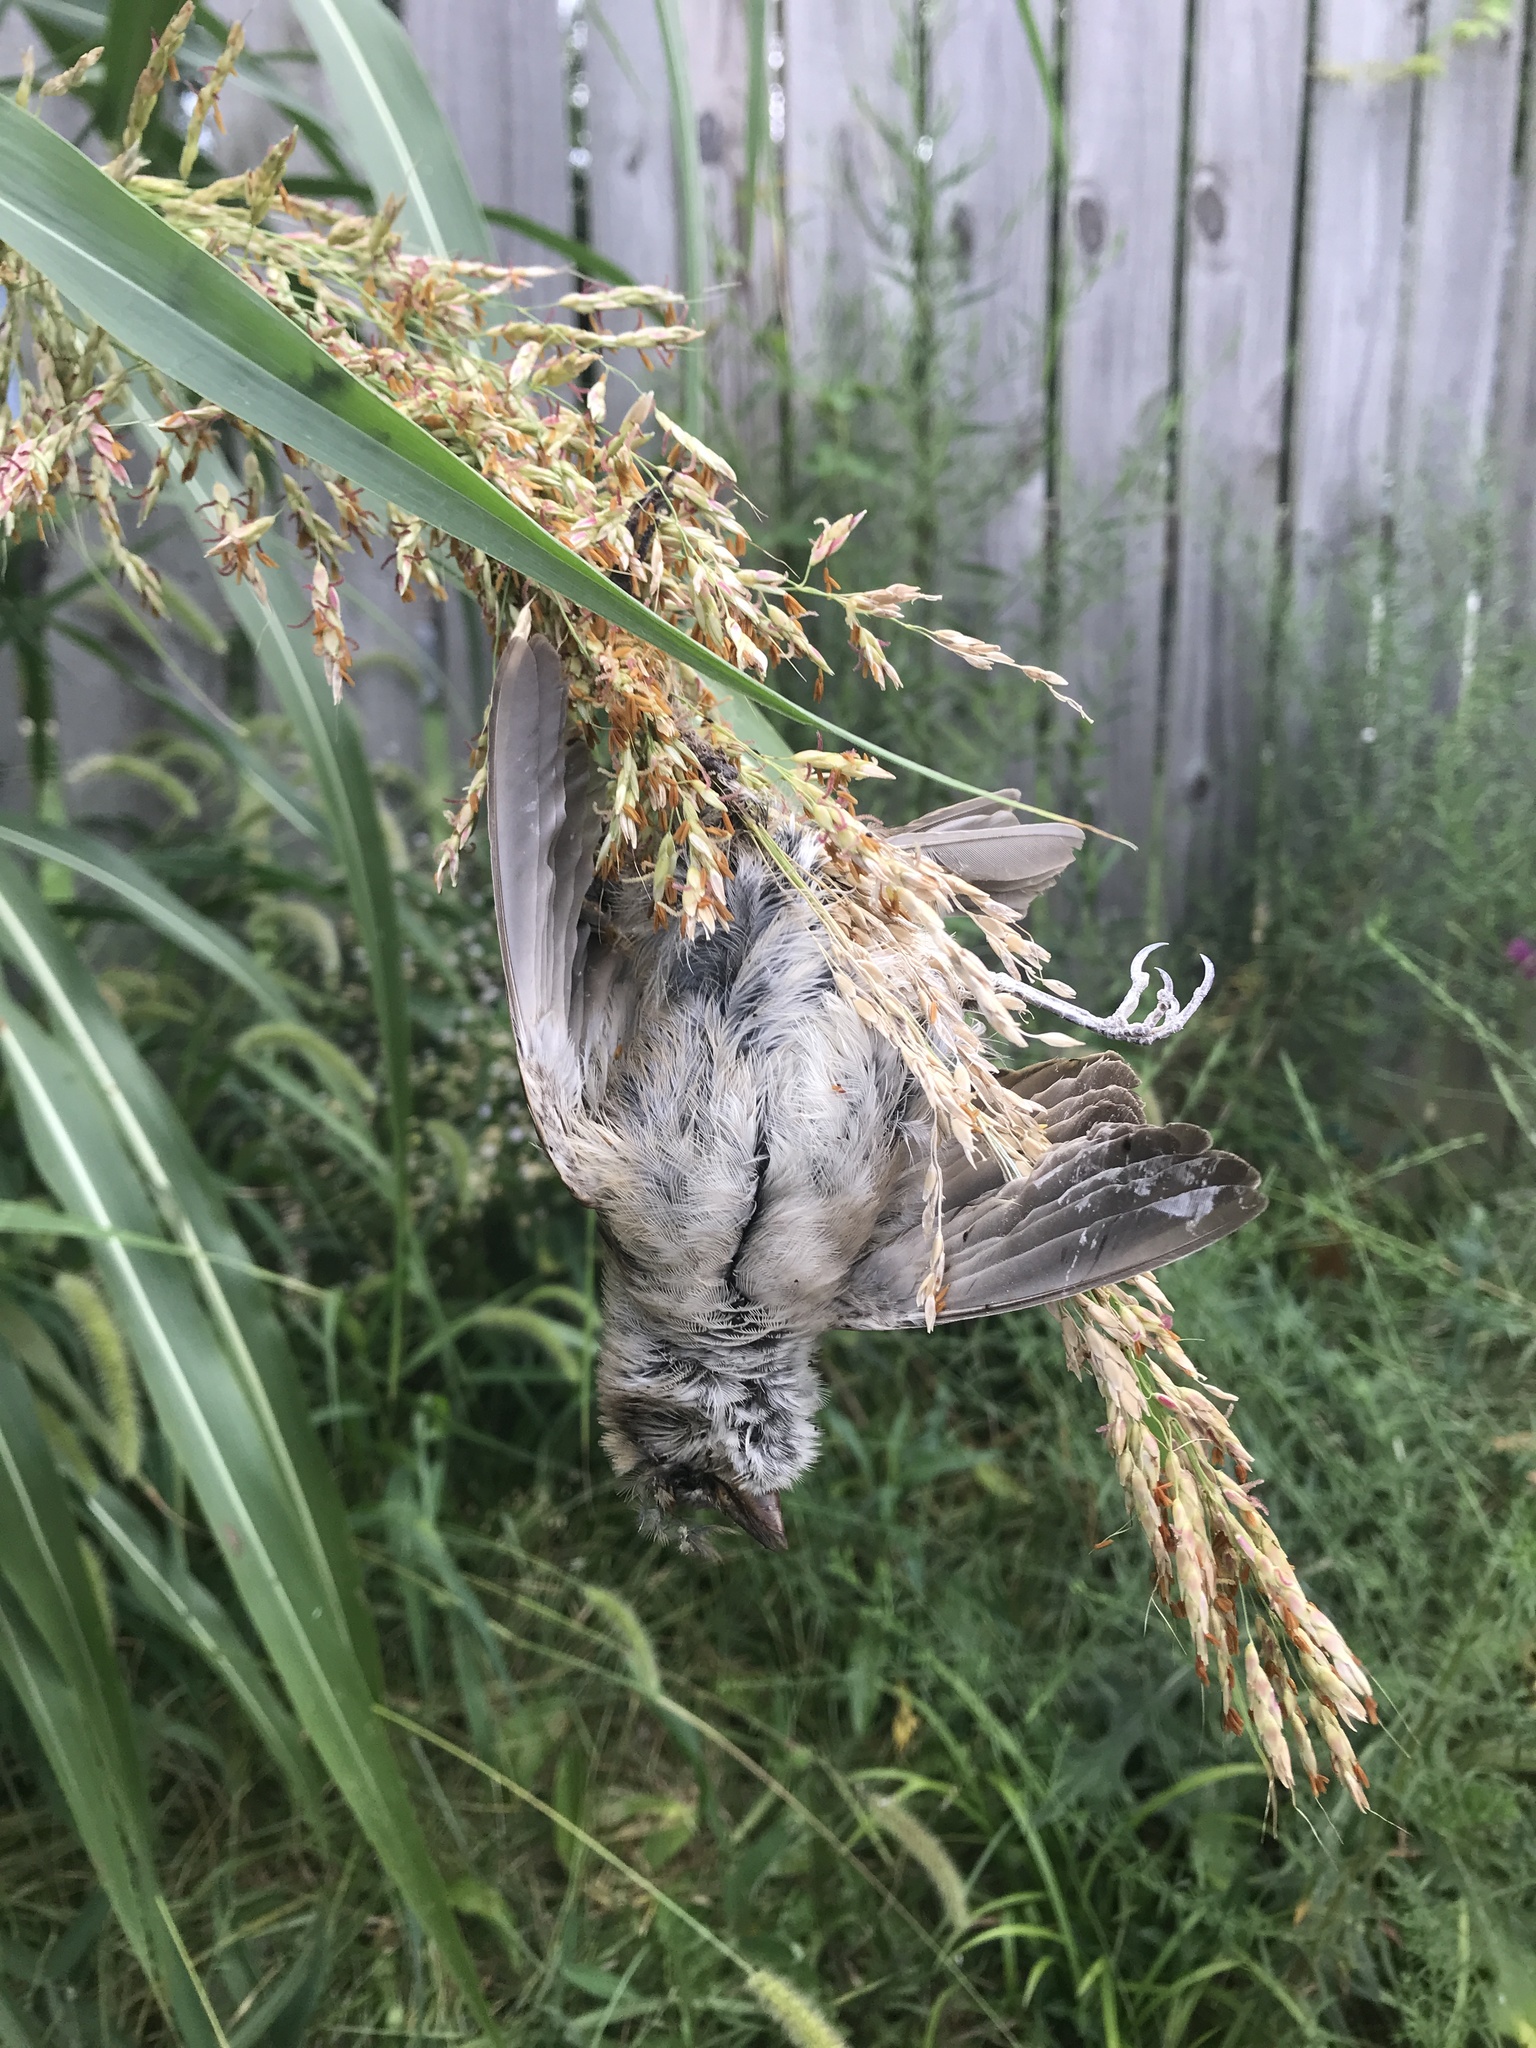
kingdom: Animalia
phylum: Chordata
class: Aves
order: Passeriformes
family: Passeridae
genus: Passer
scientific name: Passer domesticus
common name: House sparrow
